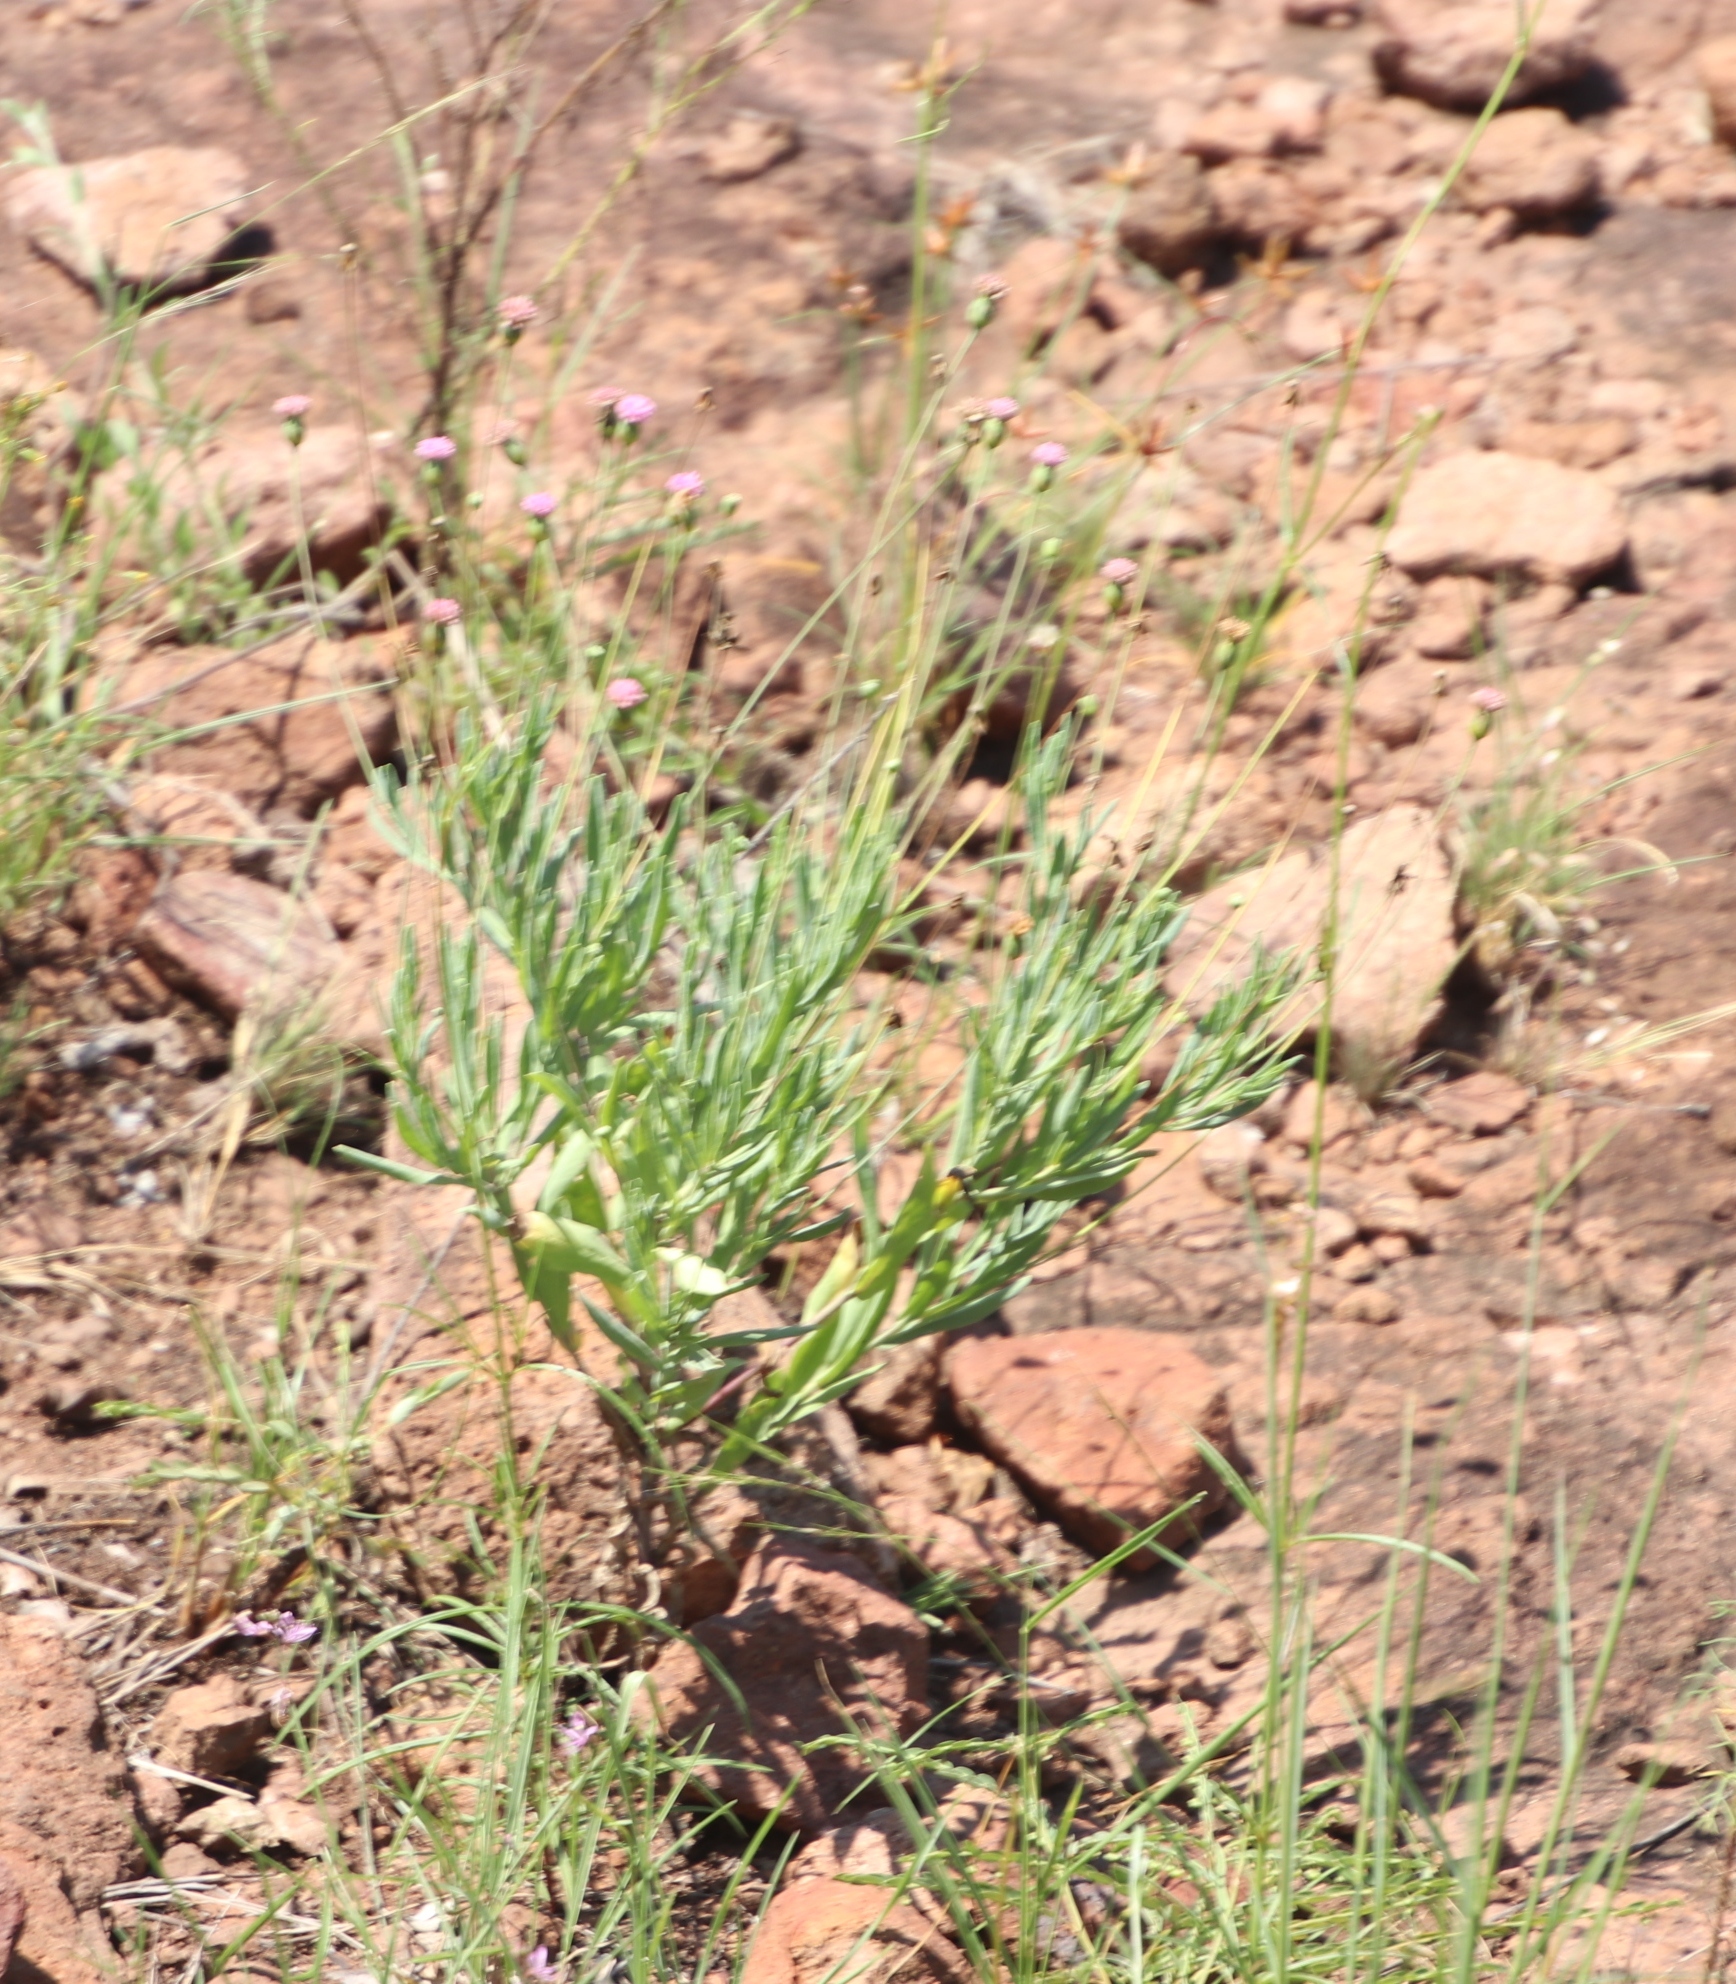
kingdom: Plantae
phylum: Tracheophyta
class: Magnoliopsida
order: Asterales
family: Asteraceae
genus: Emilia
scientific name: Emilia transvaalensis
